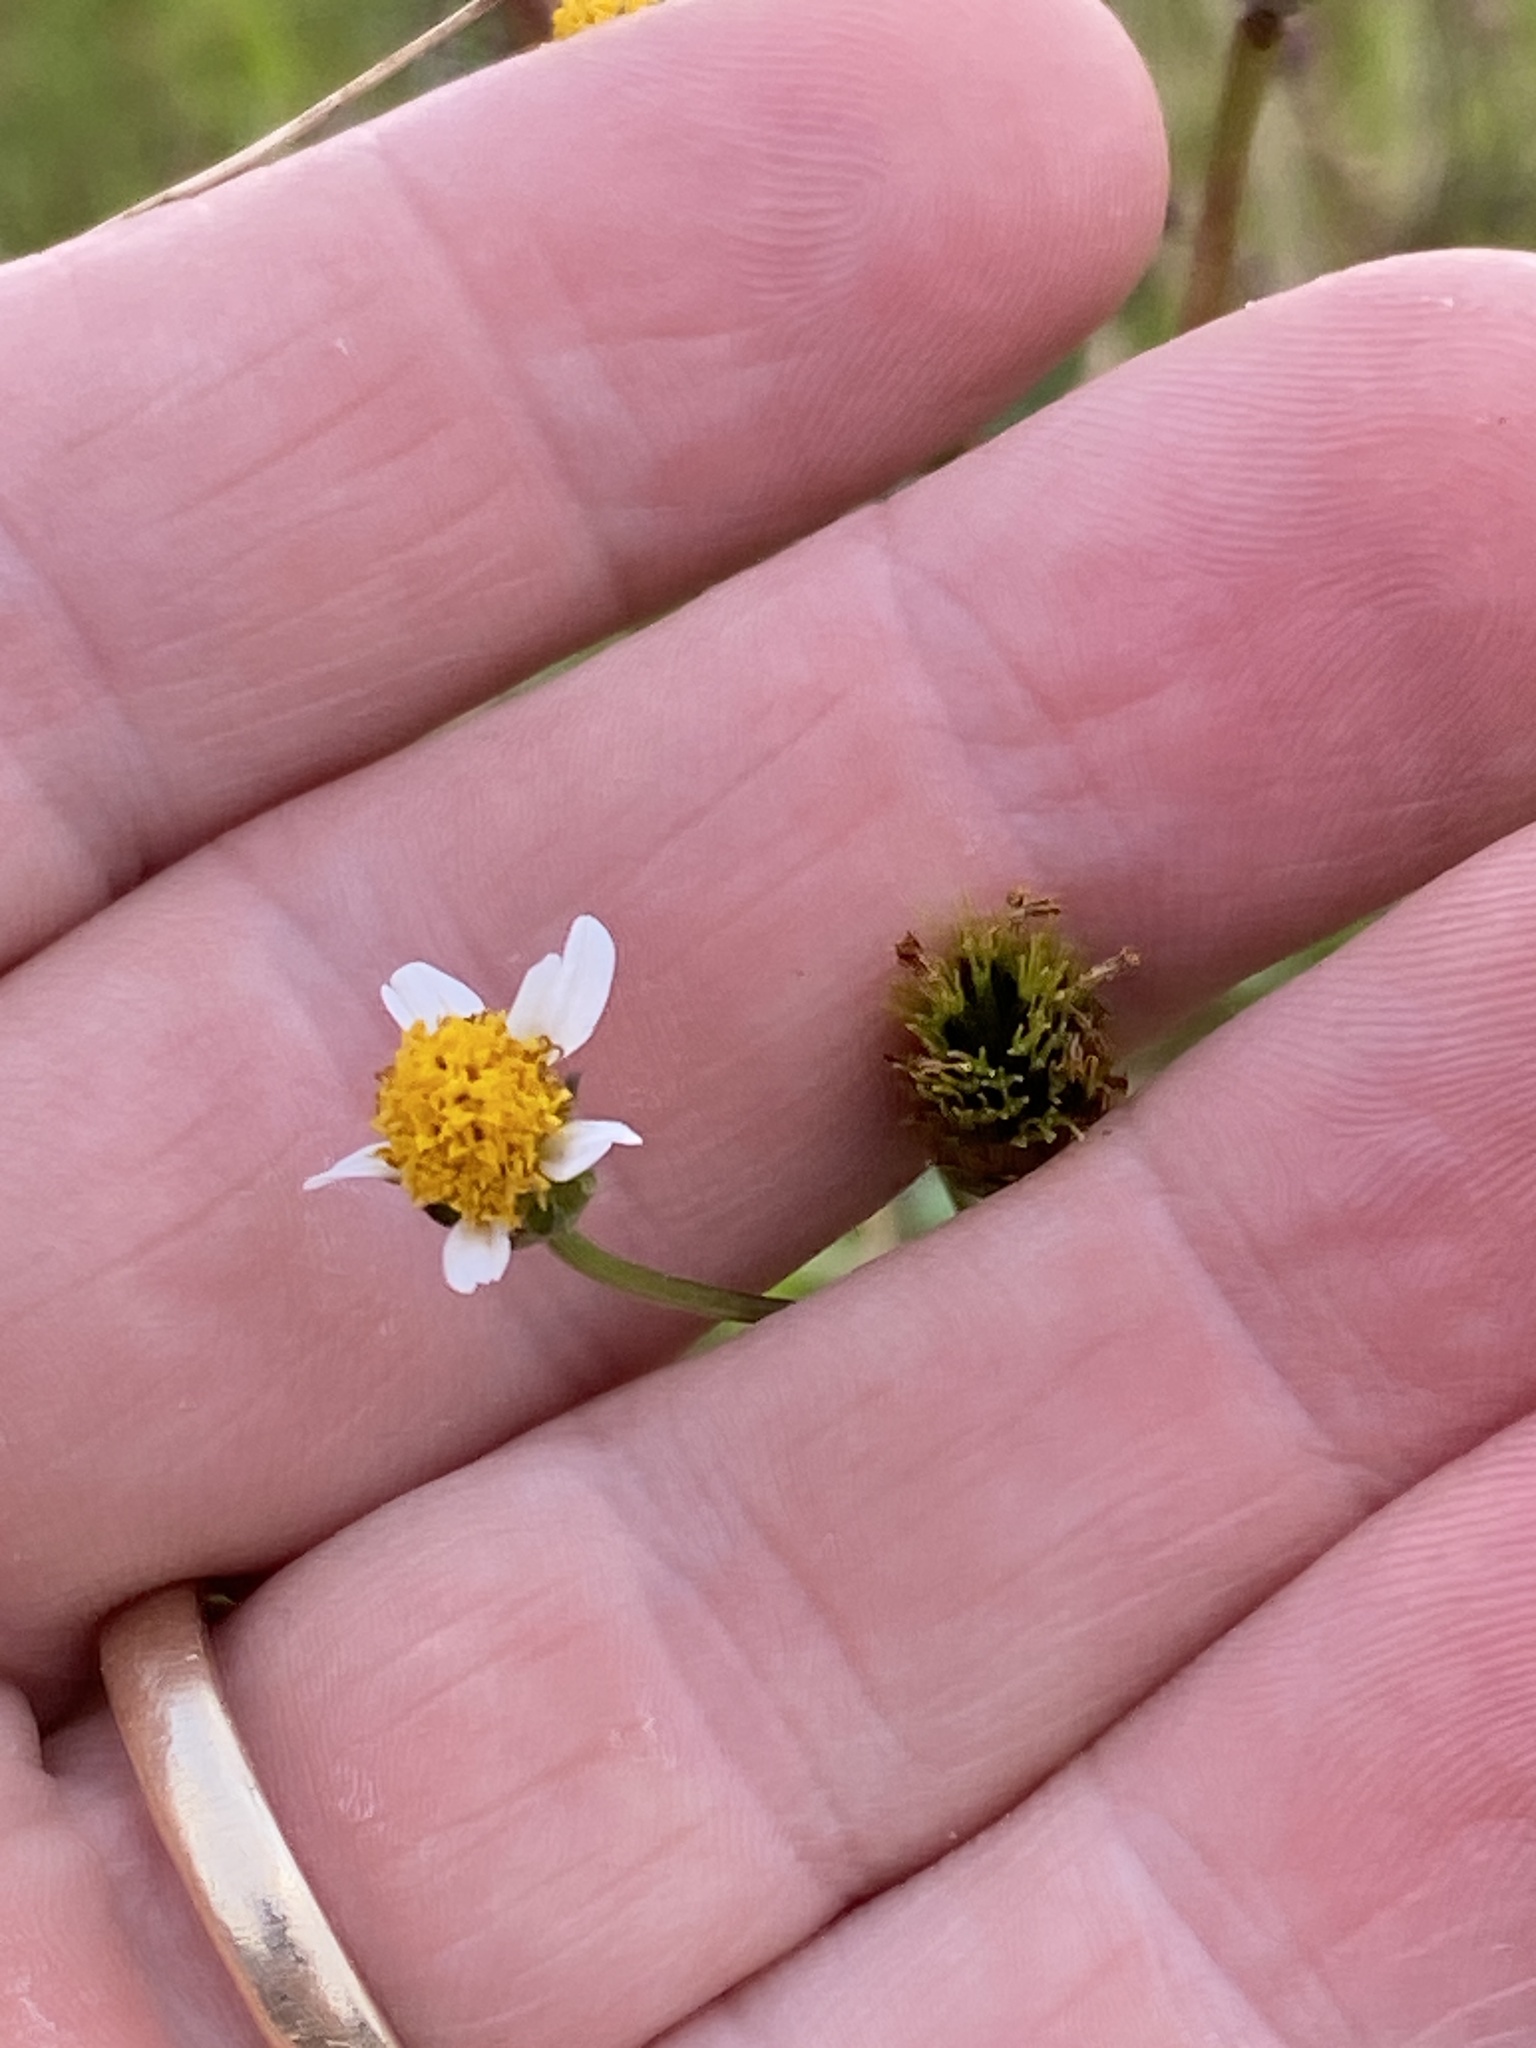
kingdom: Plantae
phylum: Tracheophyta
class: Magnoliopsida
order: Asterales
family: Asteraceae
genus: Bidens
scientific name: Bidens pilosa
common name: Black-jack
